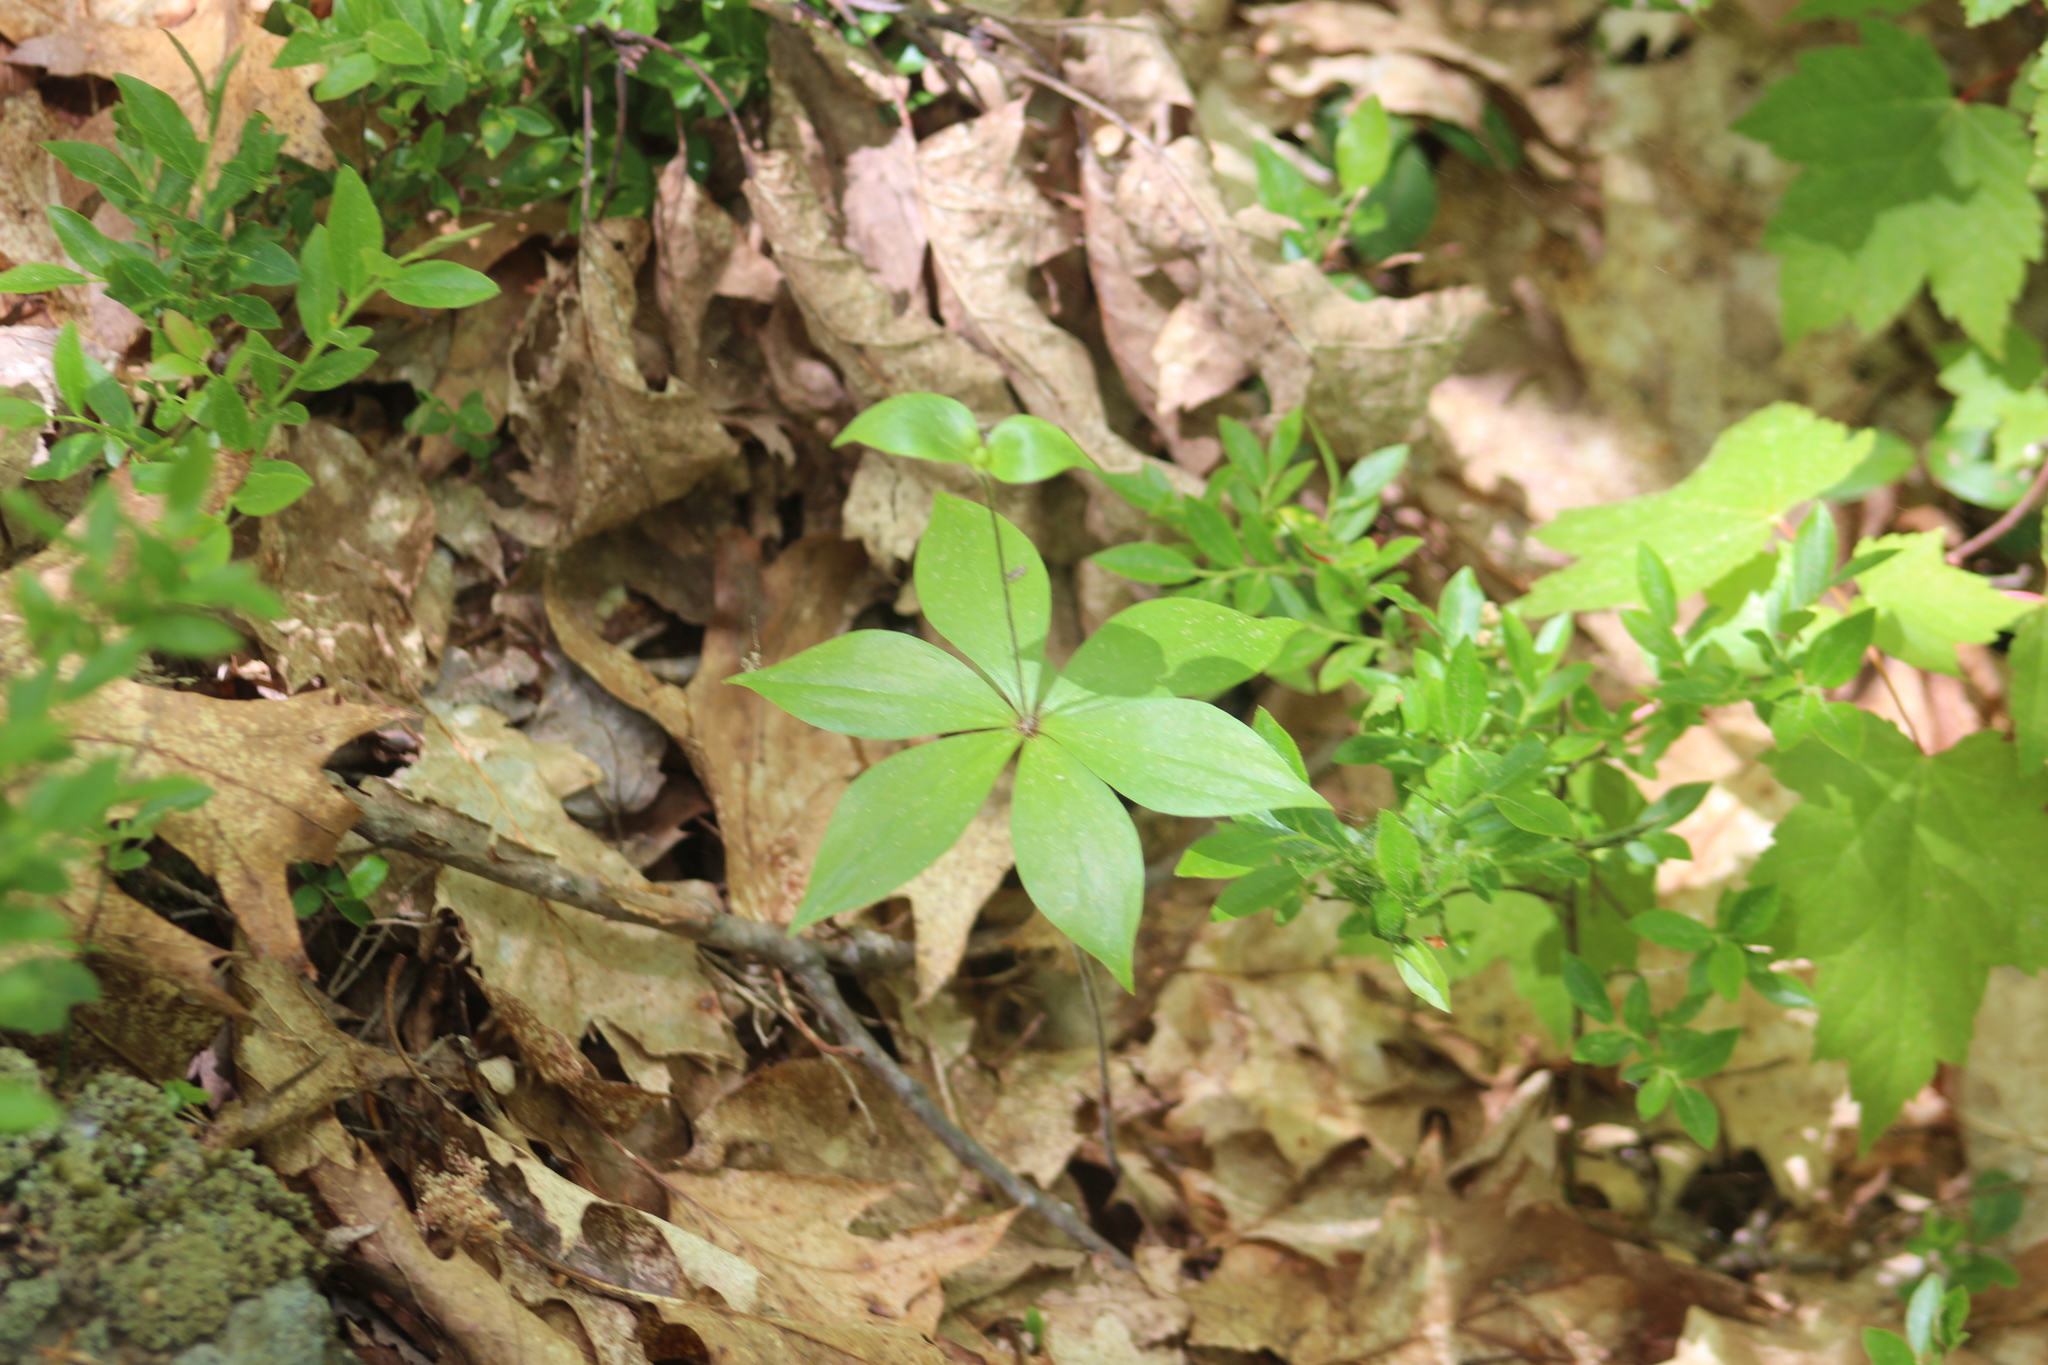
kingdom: Plantae
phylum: Tracheophyta
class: Liliopsida
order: Liliales
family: Liliaceae
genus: Medeola
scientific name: Medeola virginiana
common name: Indian cucumber-root
